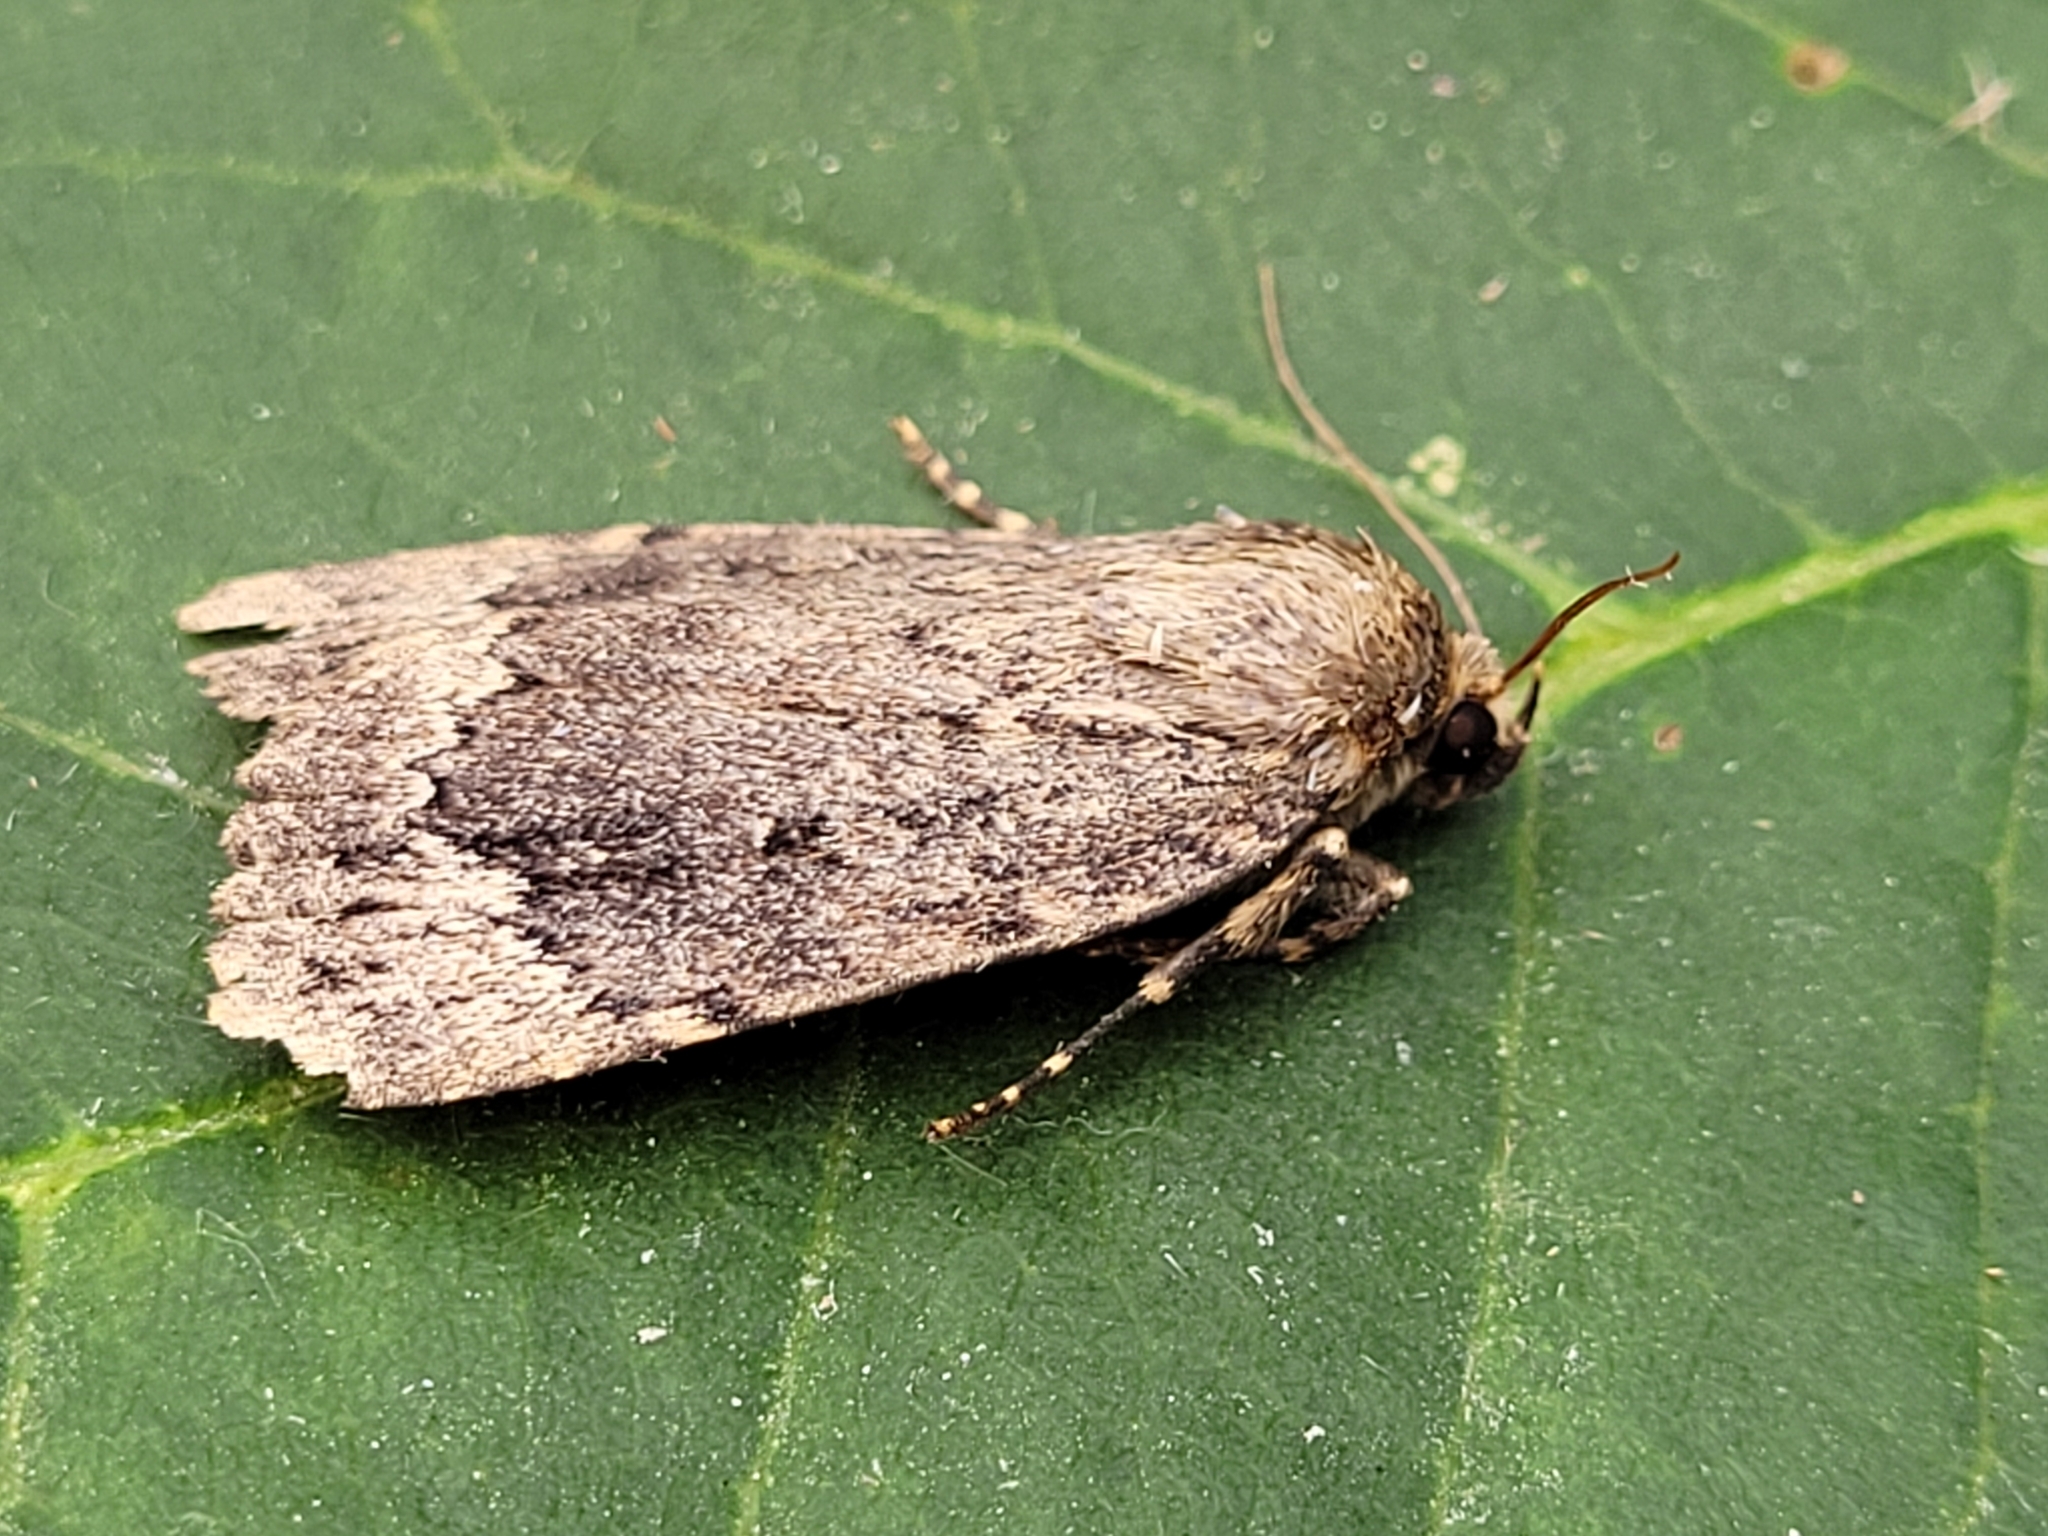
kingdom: Animalia
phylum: Arthropoda
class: Insecta
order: Lepidoptera
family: Noctuidae
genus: Amphipyra
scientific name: Amphipyra pyramidoides
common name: American copper underwing
